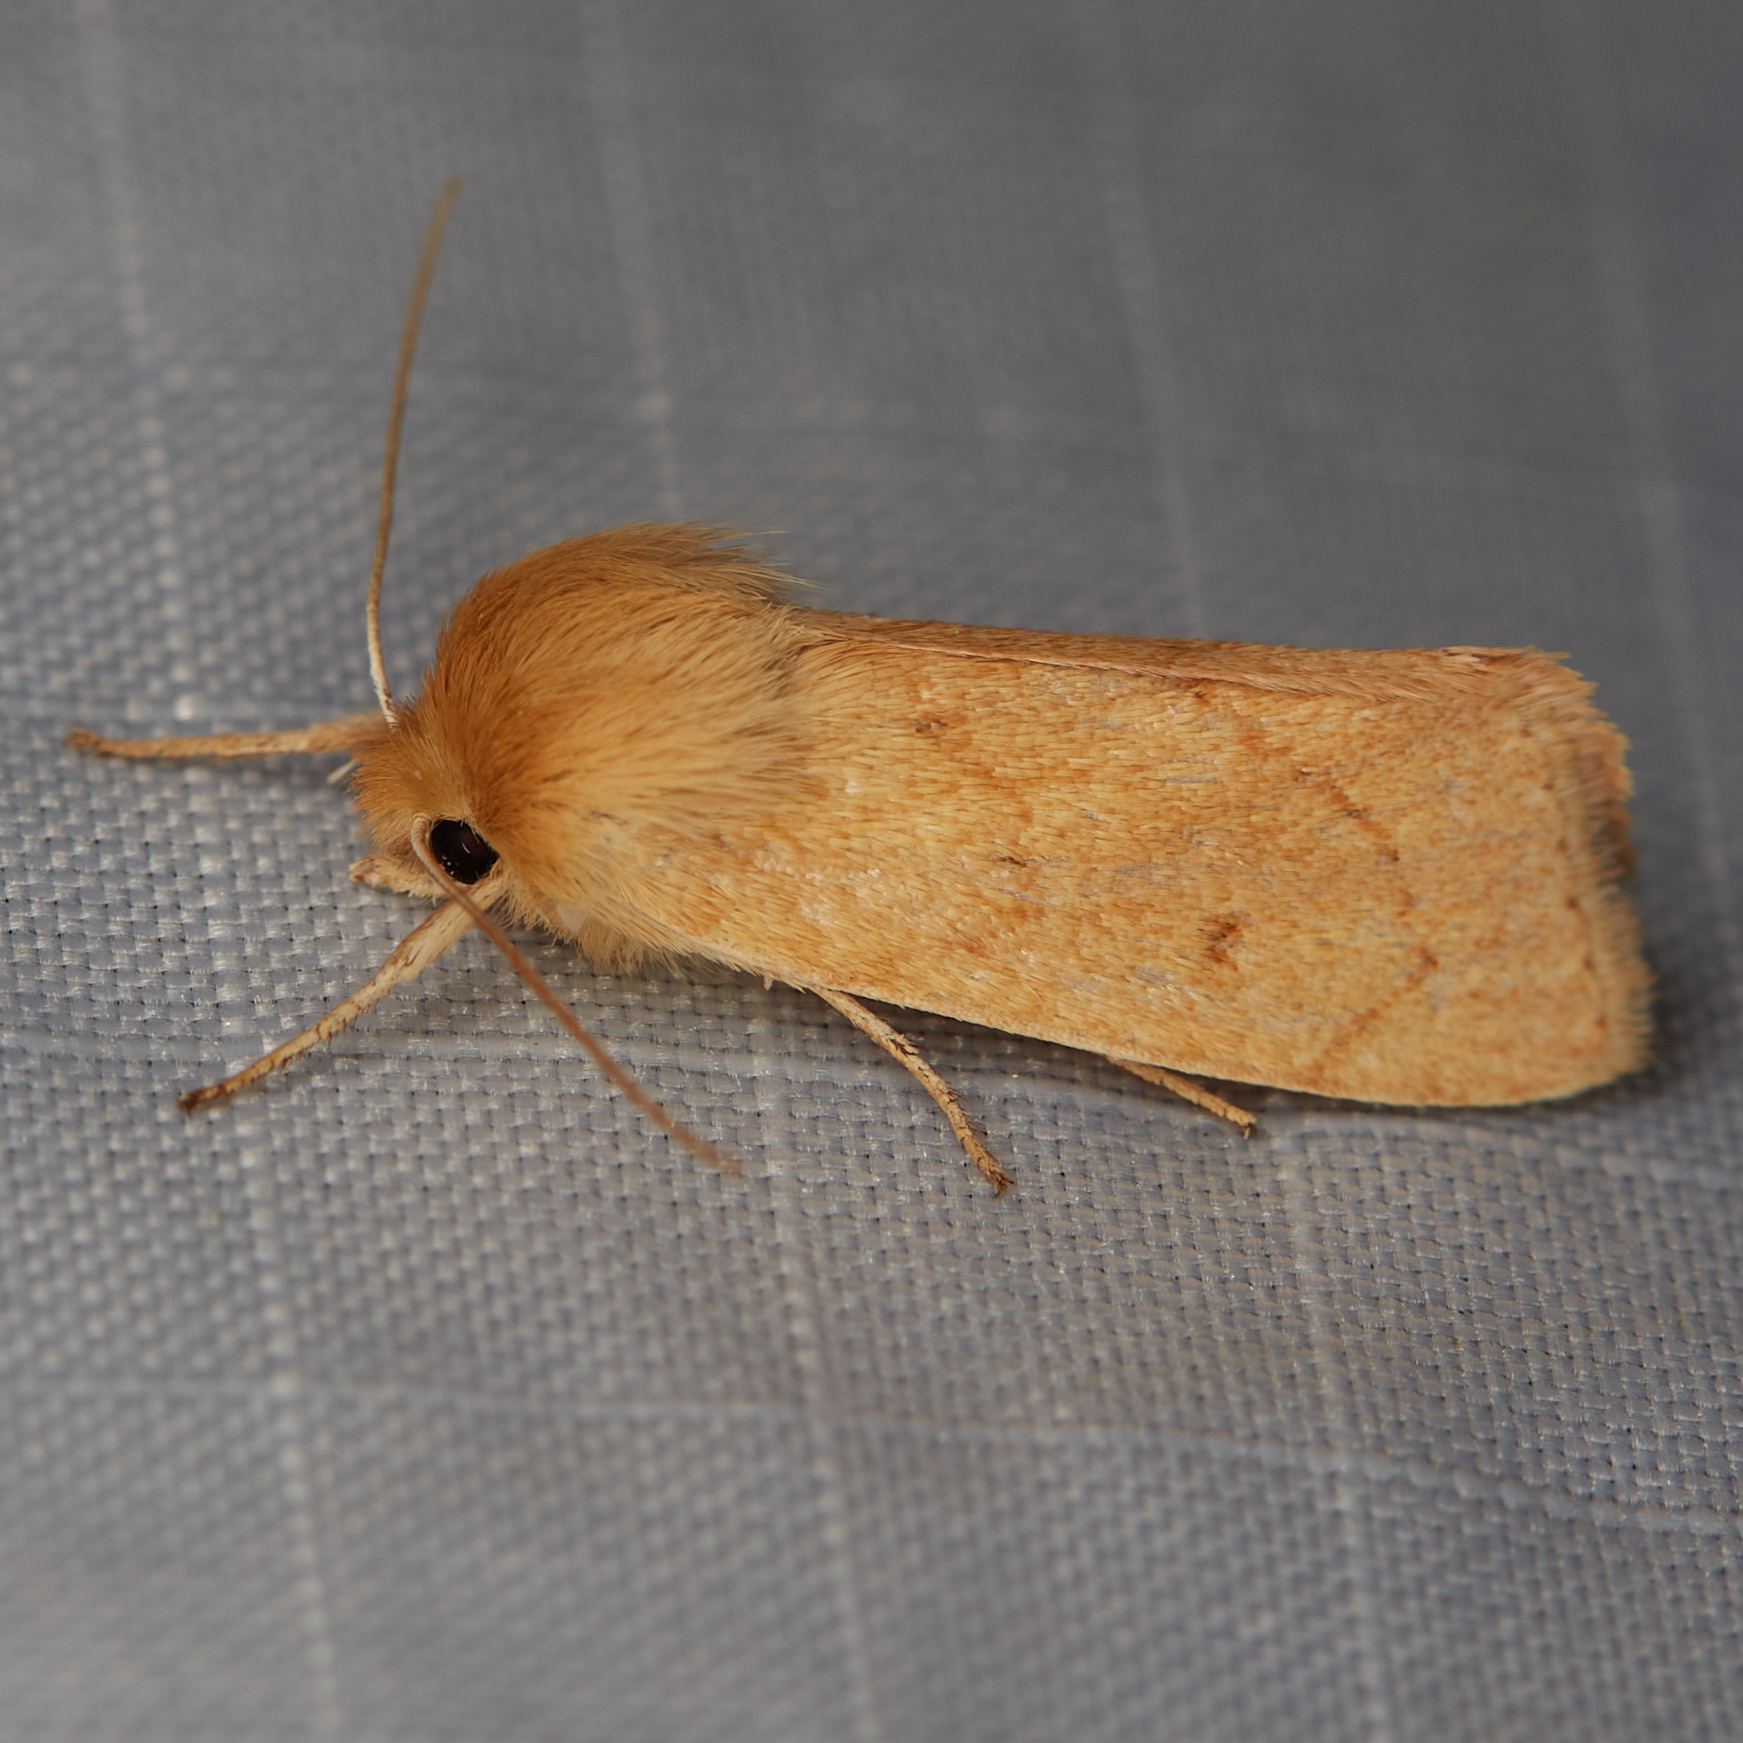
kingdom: Animalia
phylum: Arthropoda
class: Insecta
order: Lepidoptera
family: Noctuidae
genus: Zosteropoda
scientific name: Zosteropoda hirtipes
